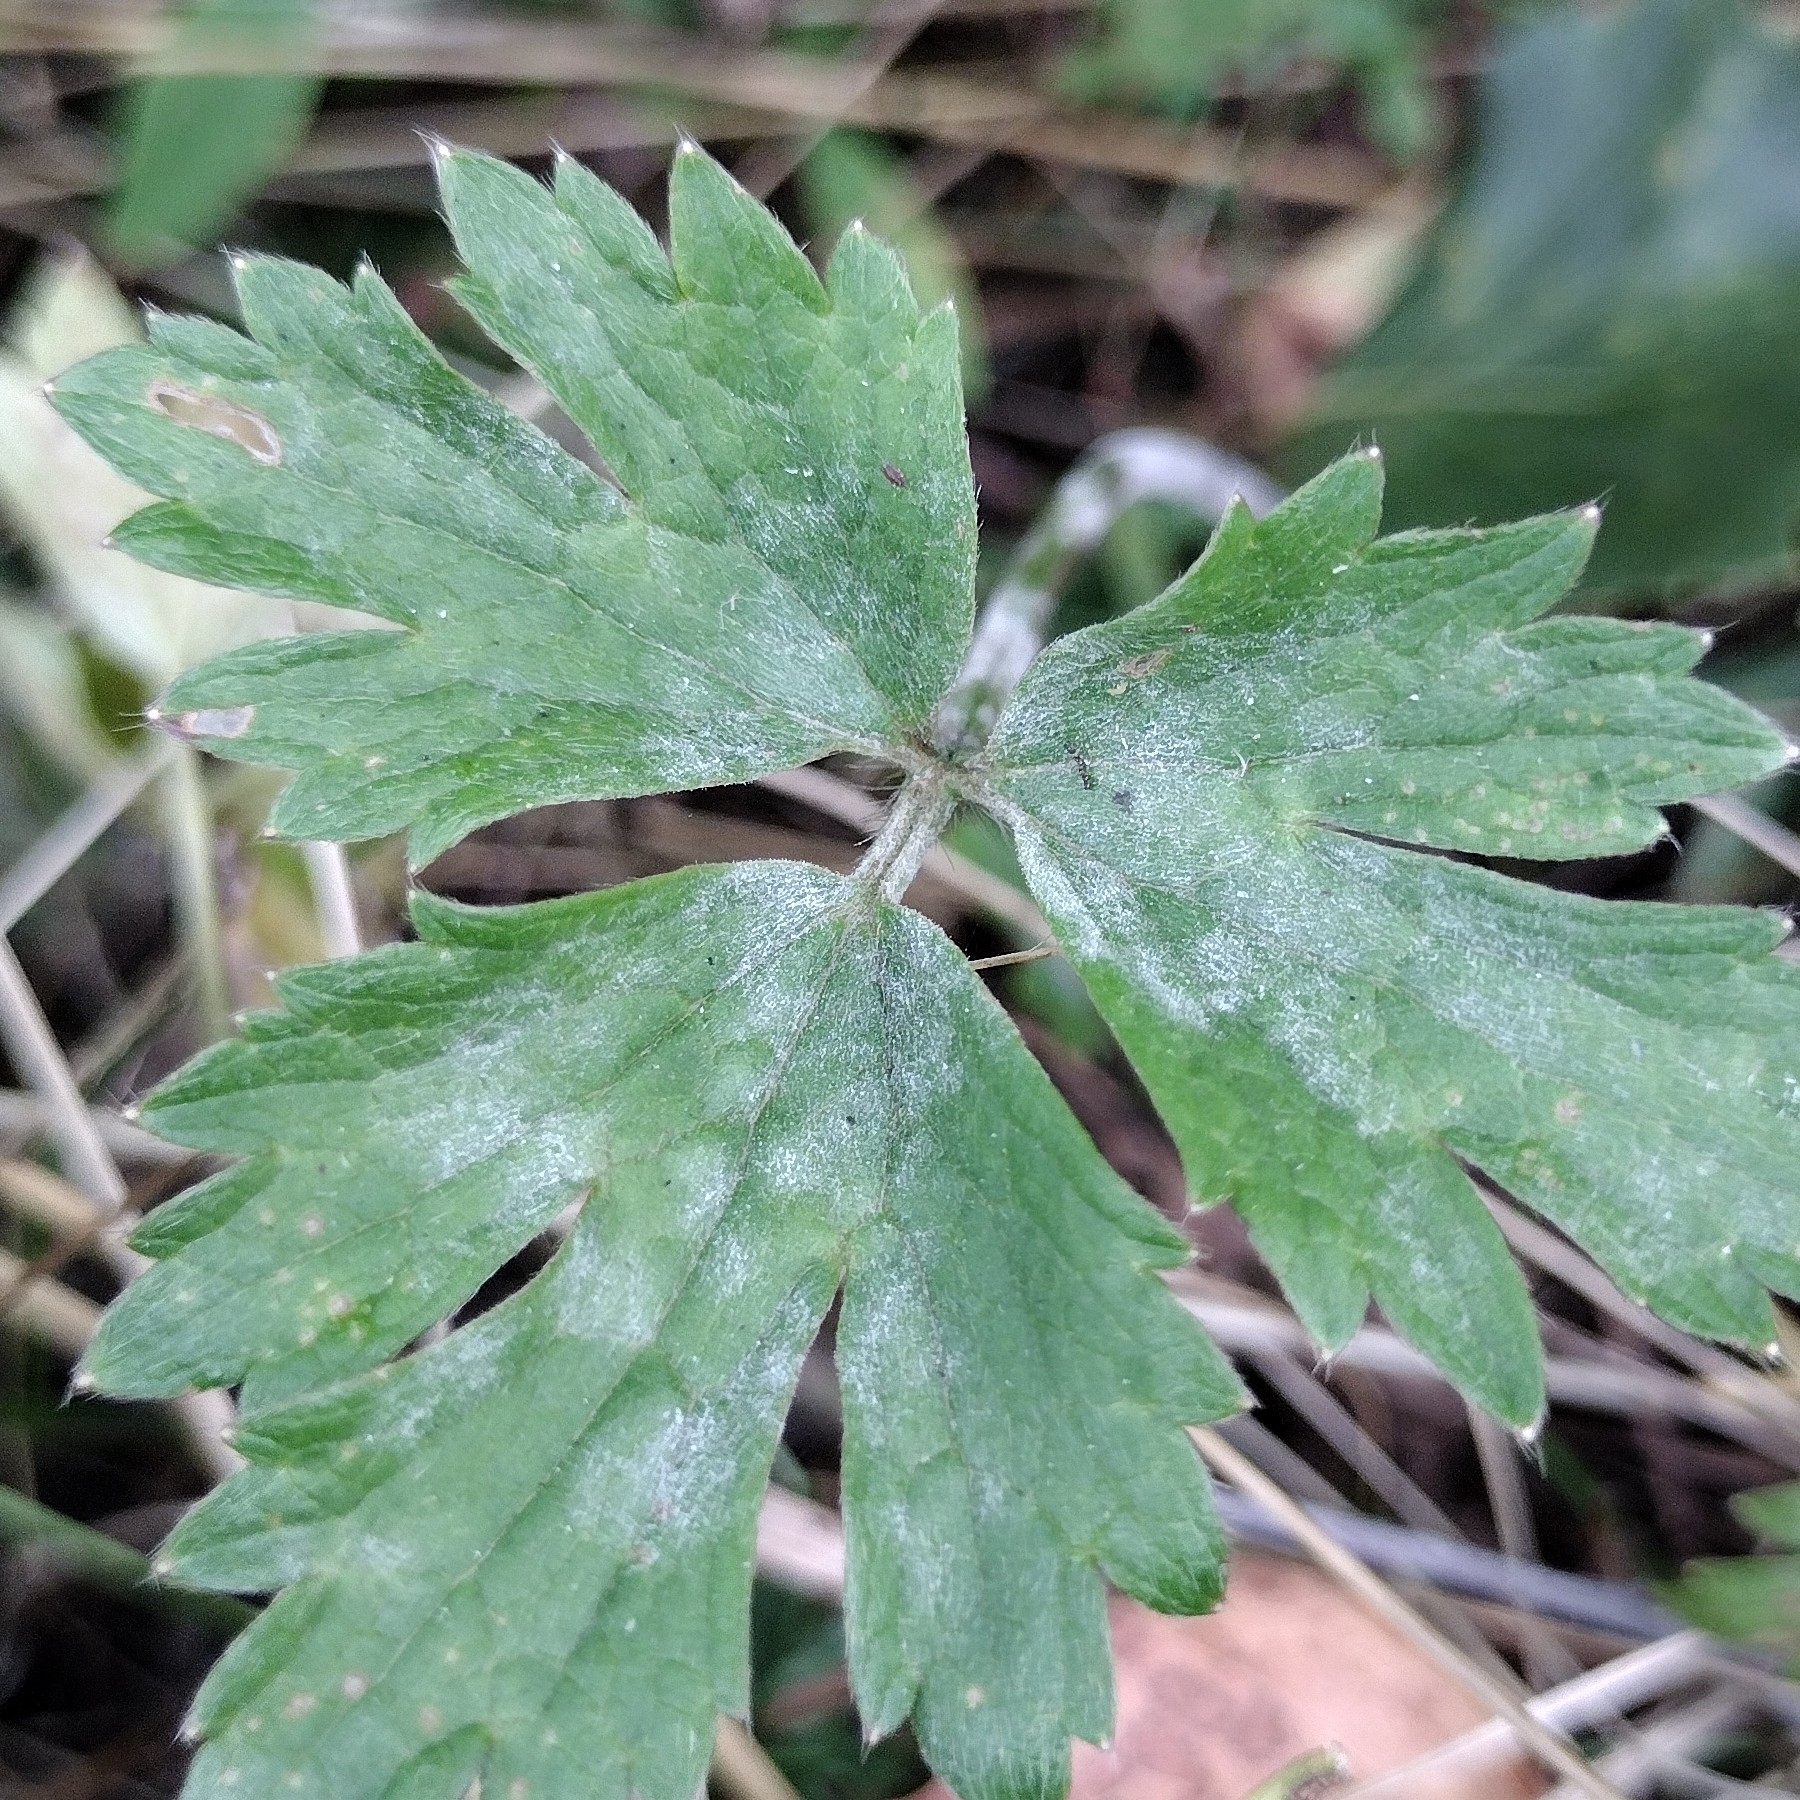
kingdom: Fungi
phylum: Ascomycota
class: Leotiomycetes
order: Helotiales
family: Erysiphaceae
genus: Erysiphe
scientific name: Erysiphe aquilegiae
